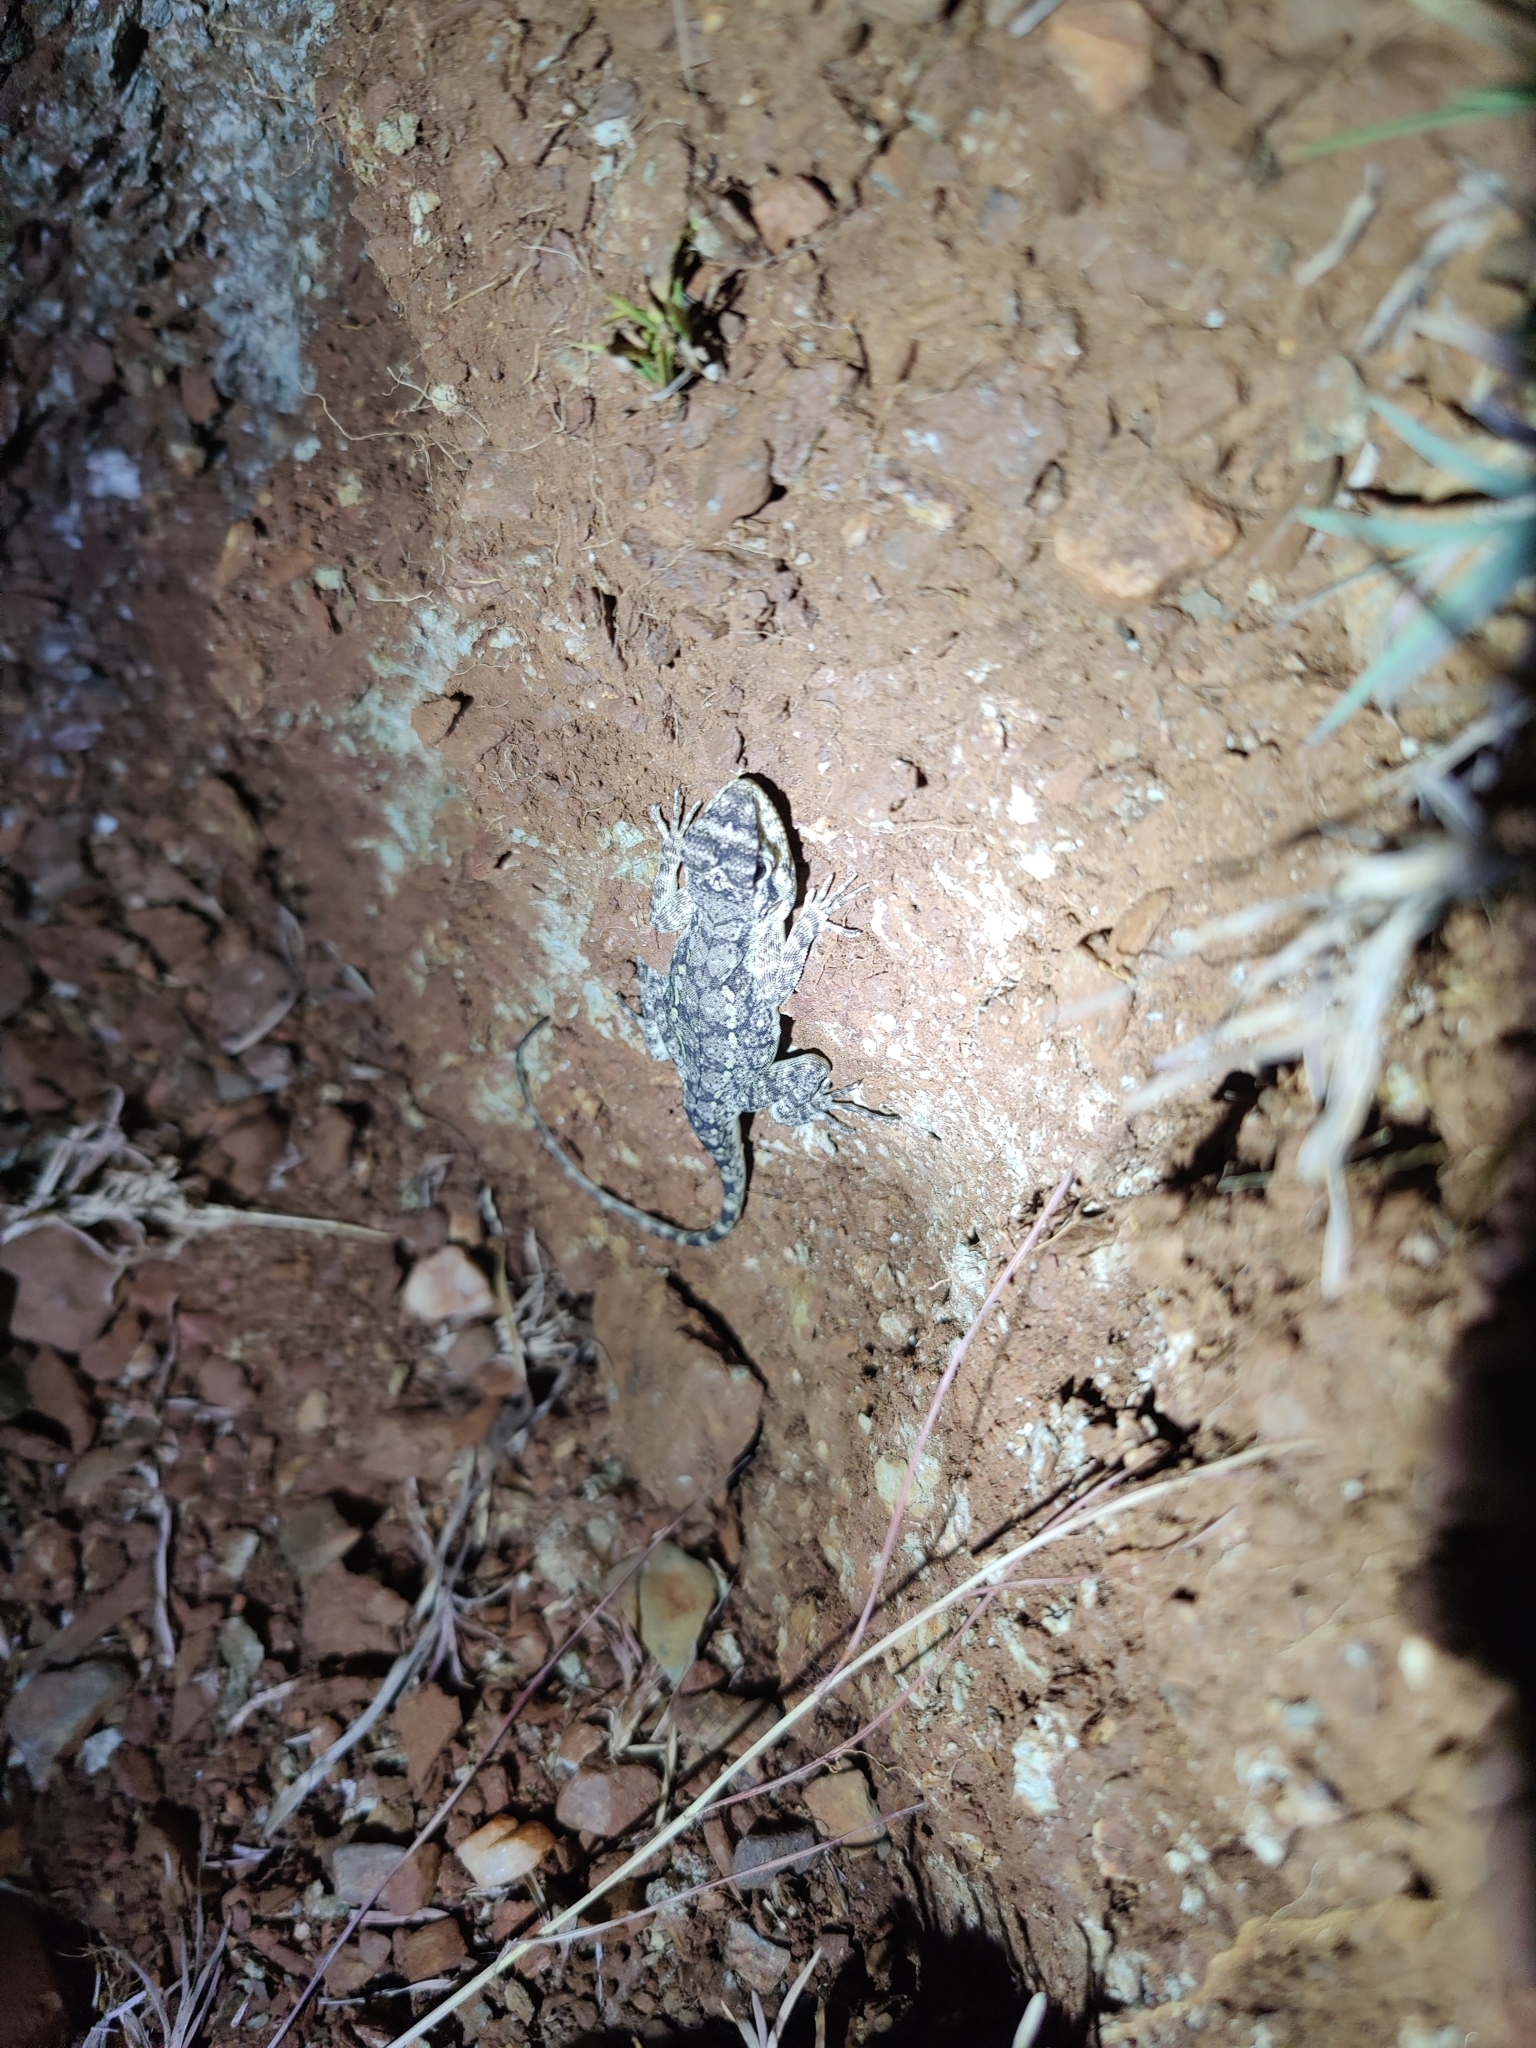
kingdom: Animalia
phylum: Chordata
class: Squamata
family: Agamidae
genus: Psammophilus
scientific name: Psammophilus dorsalis
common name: South indian rock agama
